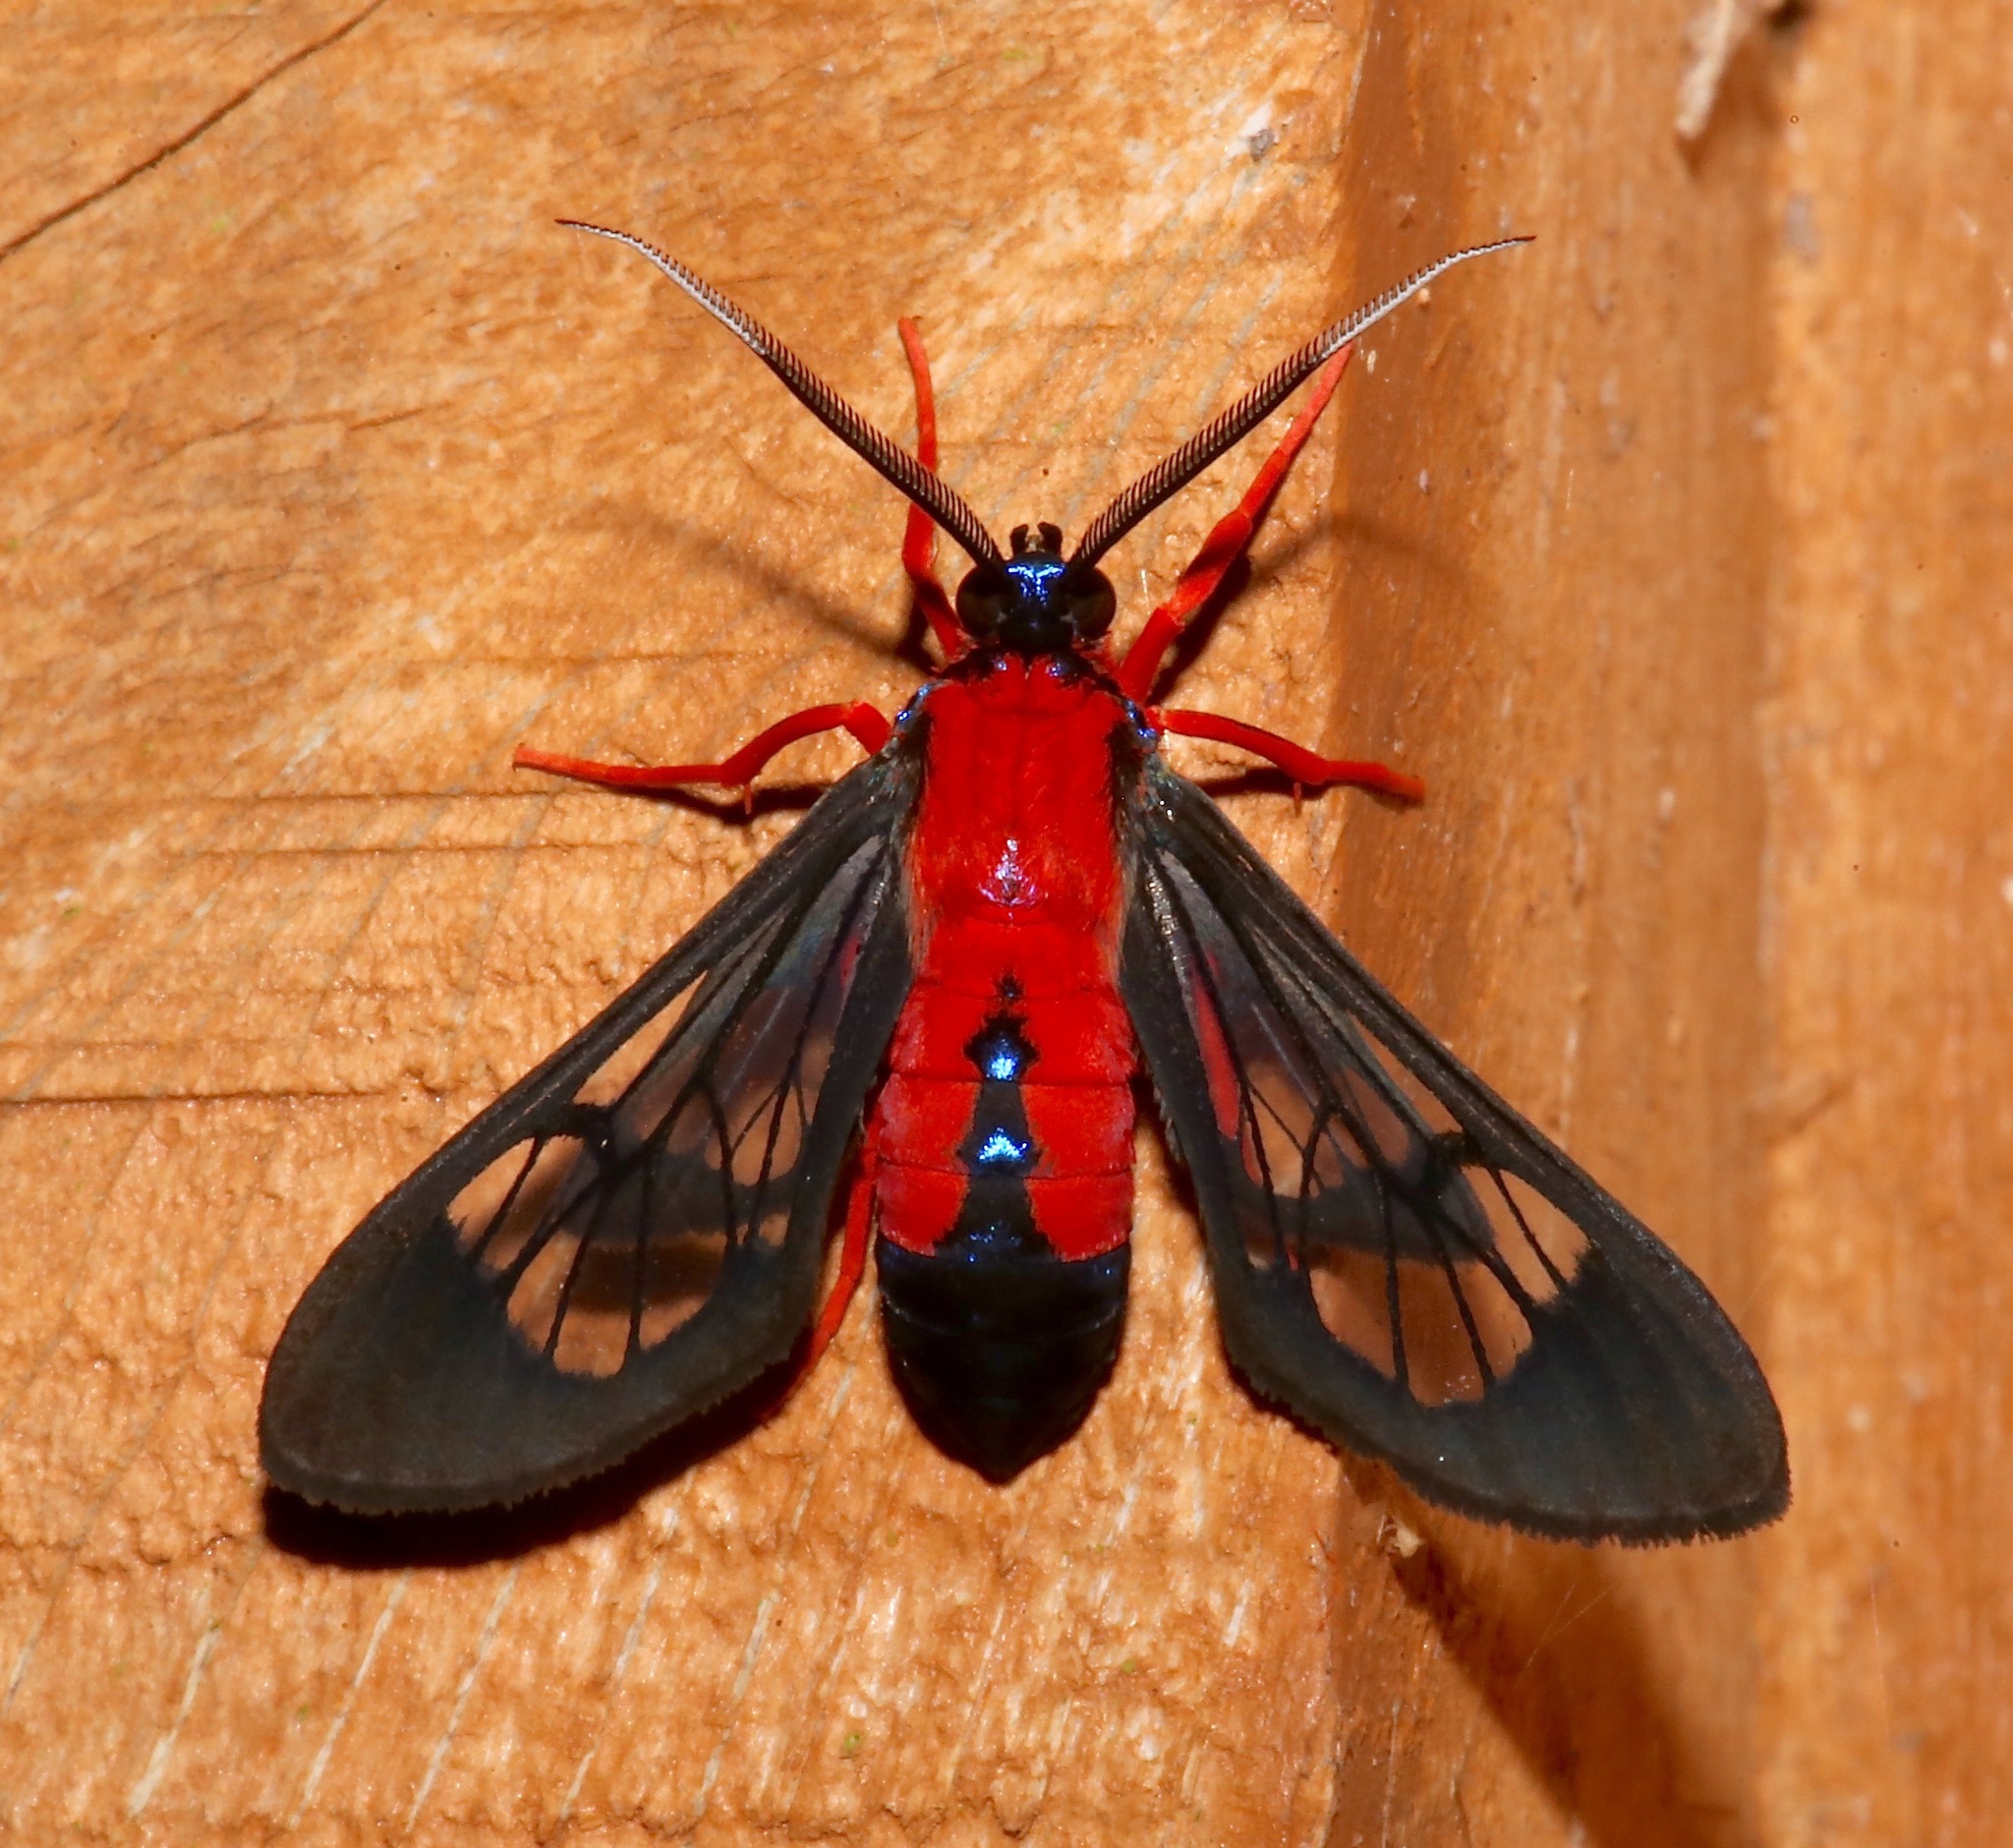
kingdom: Animalia
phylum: Arthropoda
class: Insecta
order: Lepidoptera
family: Erebidae
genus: Cosmosoma
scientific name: Cosmosoma myrodora
